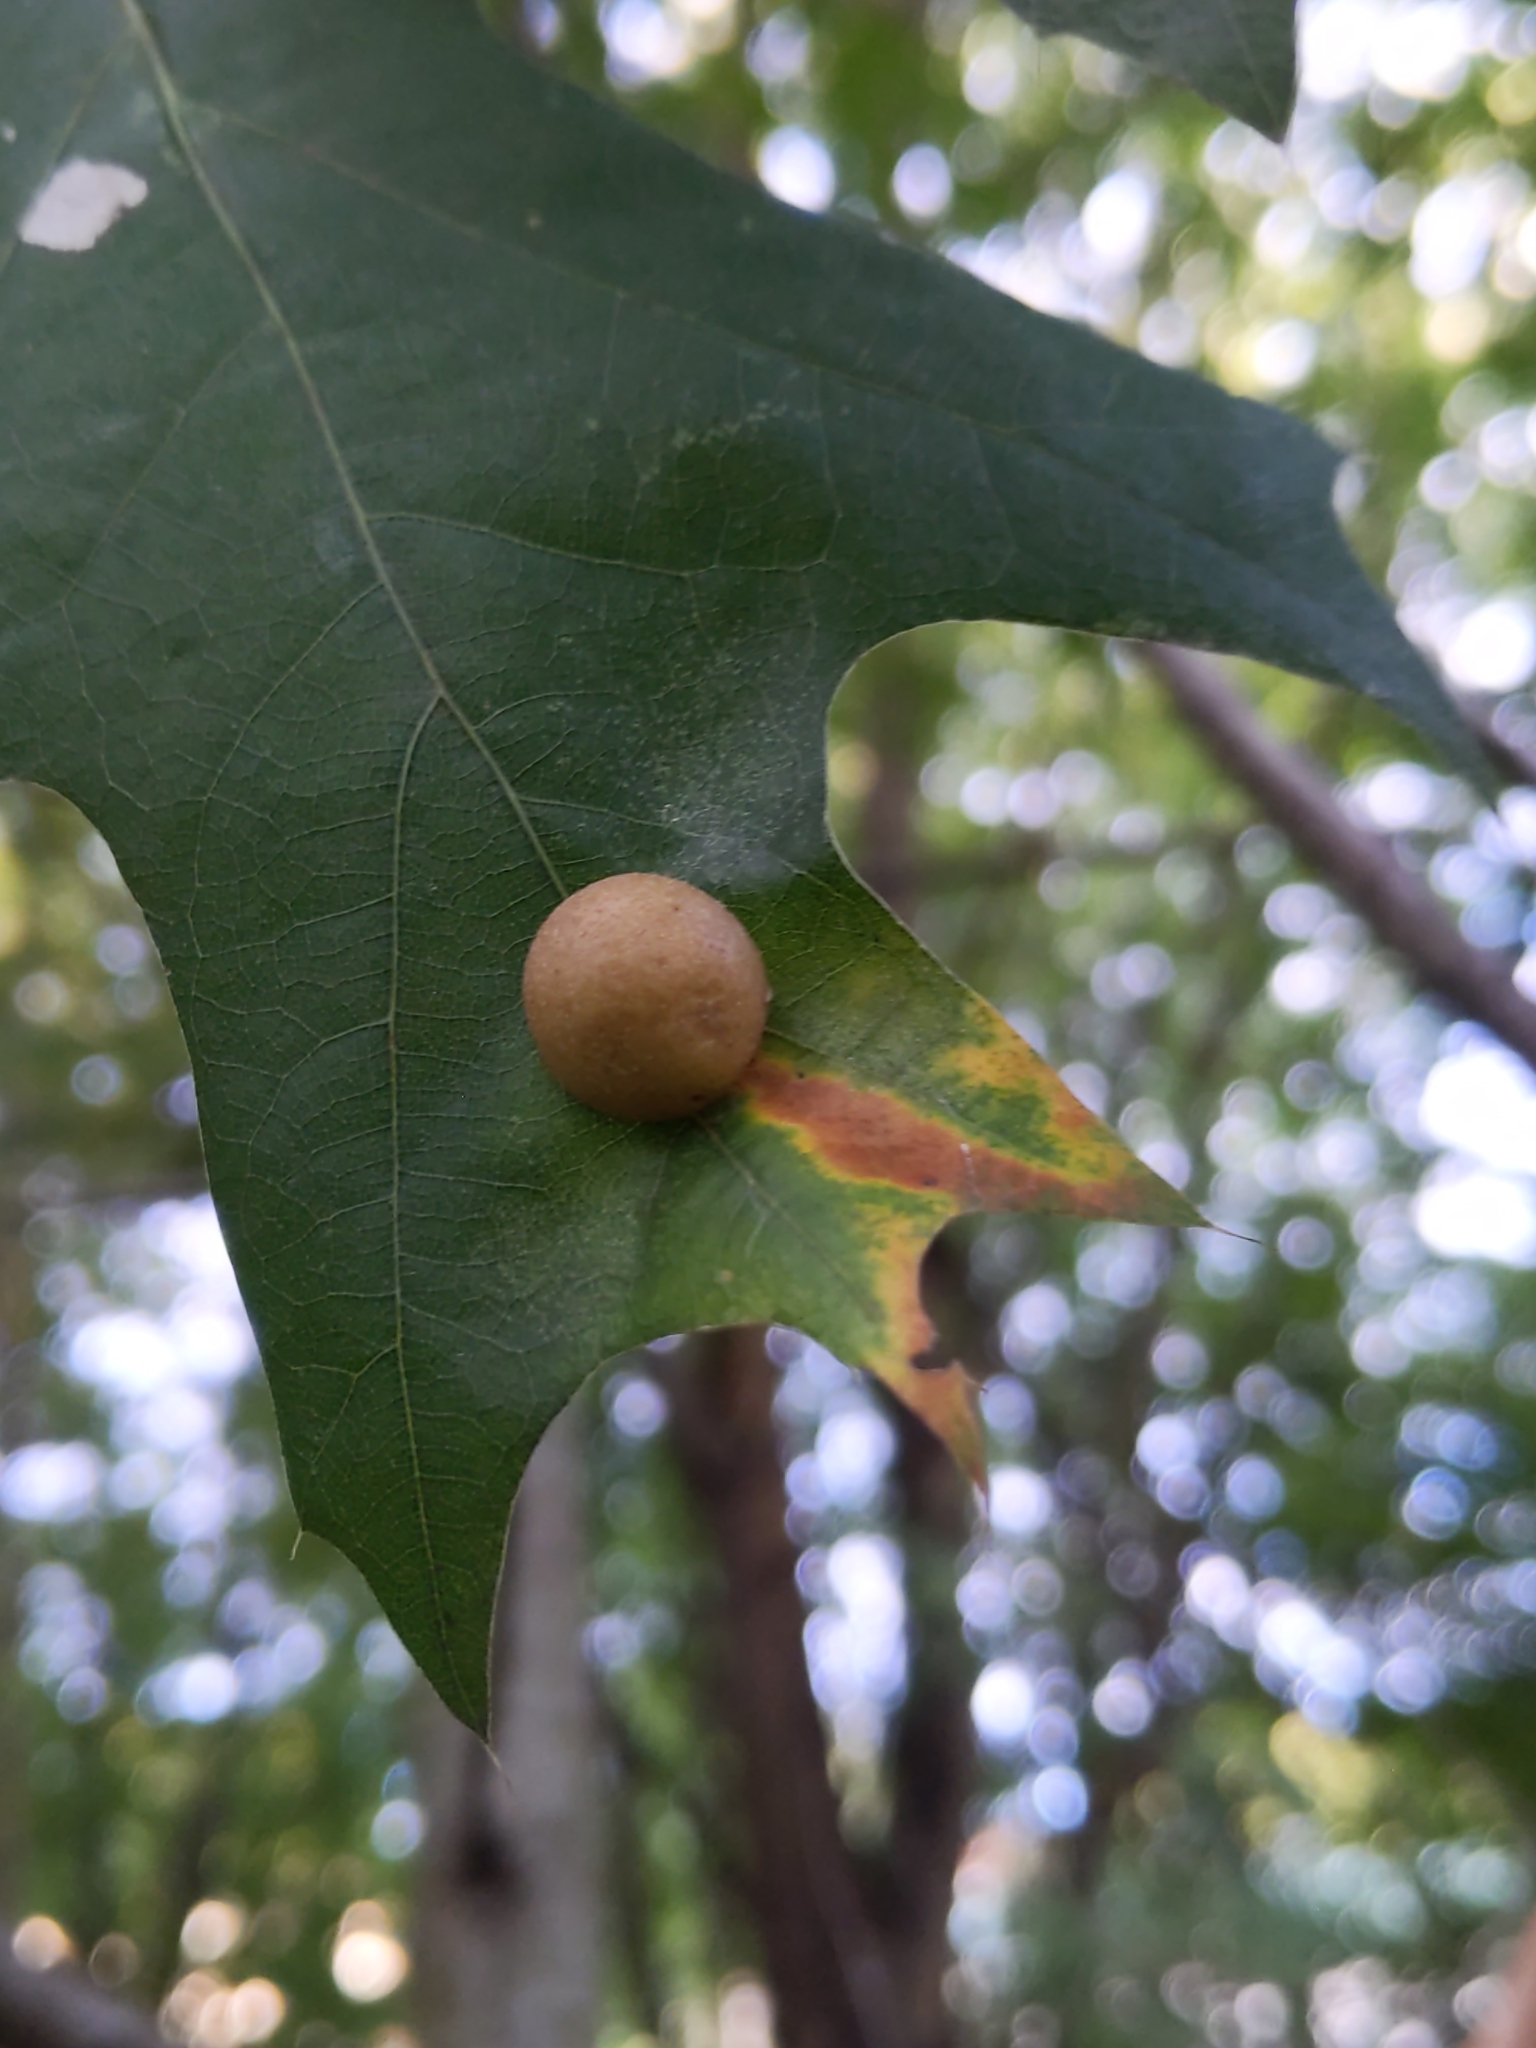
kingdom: Animalia
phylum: Arthropoda
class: Insecta
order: Diptera
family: Cecidomyiidae
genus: Polystepha
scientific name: Polystepha pilulae
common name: Oak leaf gall midge
